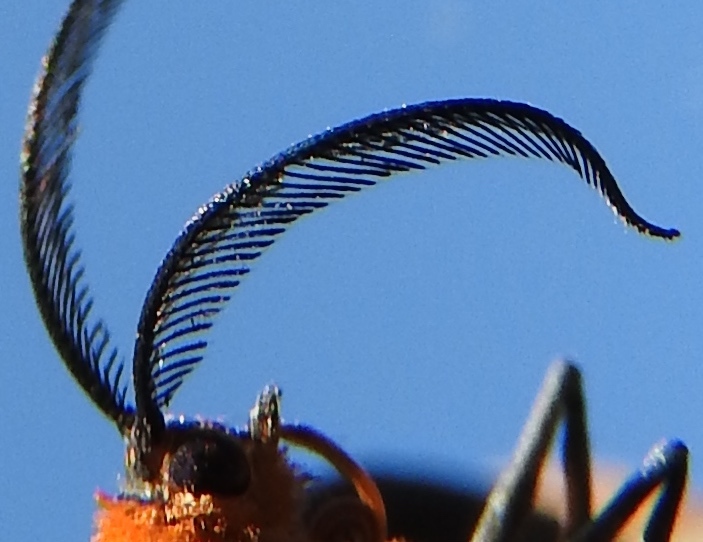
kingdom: Animalia
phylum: Arthropoda
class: Insecta
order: Lepidoptera
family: Geometridae
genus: Melanchroia
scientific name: Melanchroia chephise
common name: White-tipped black
